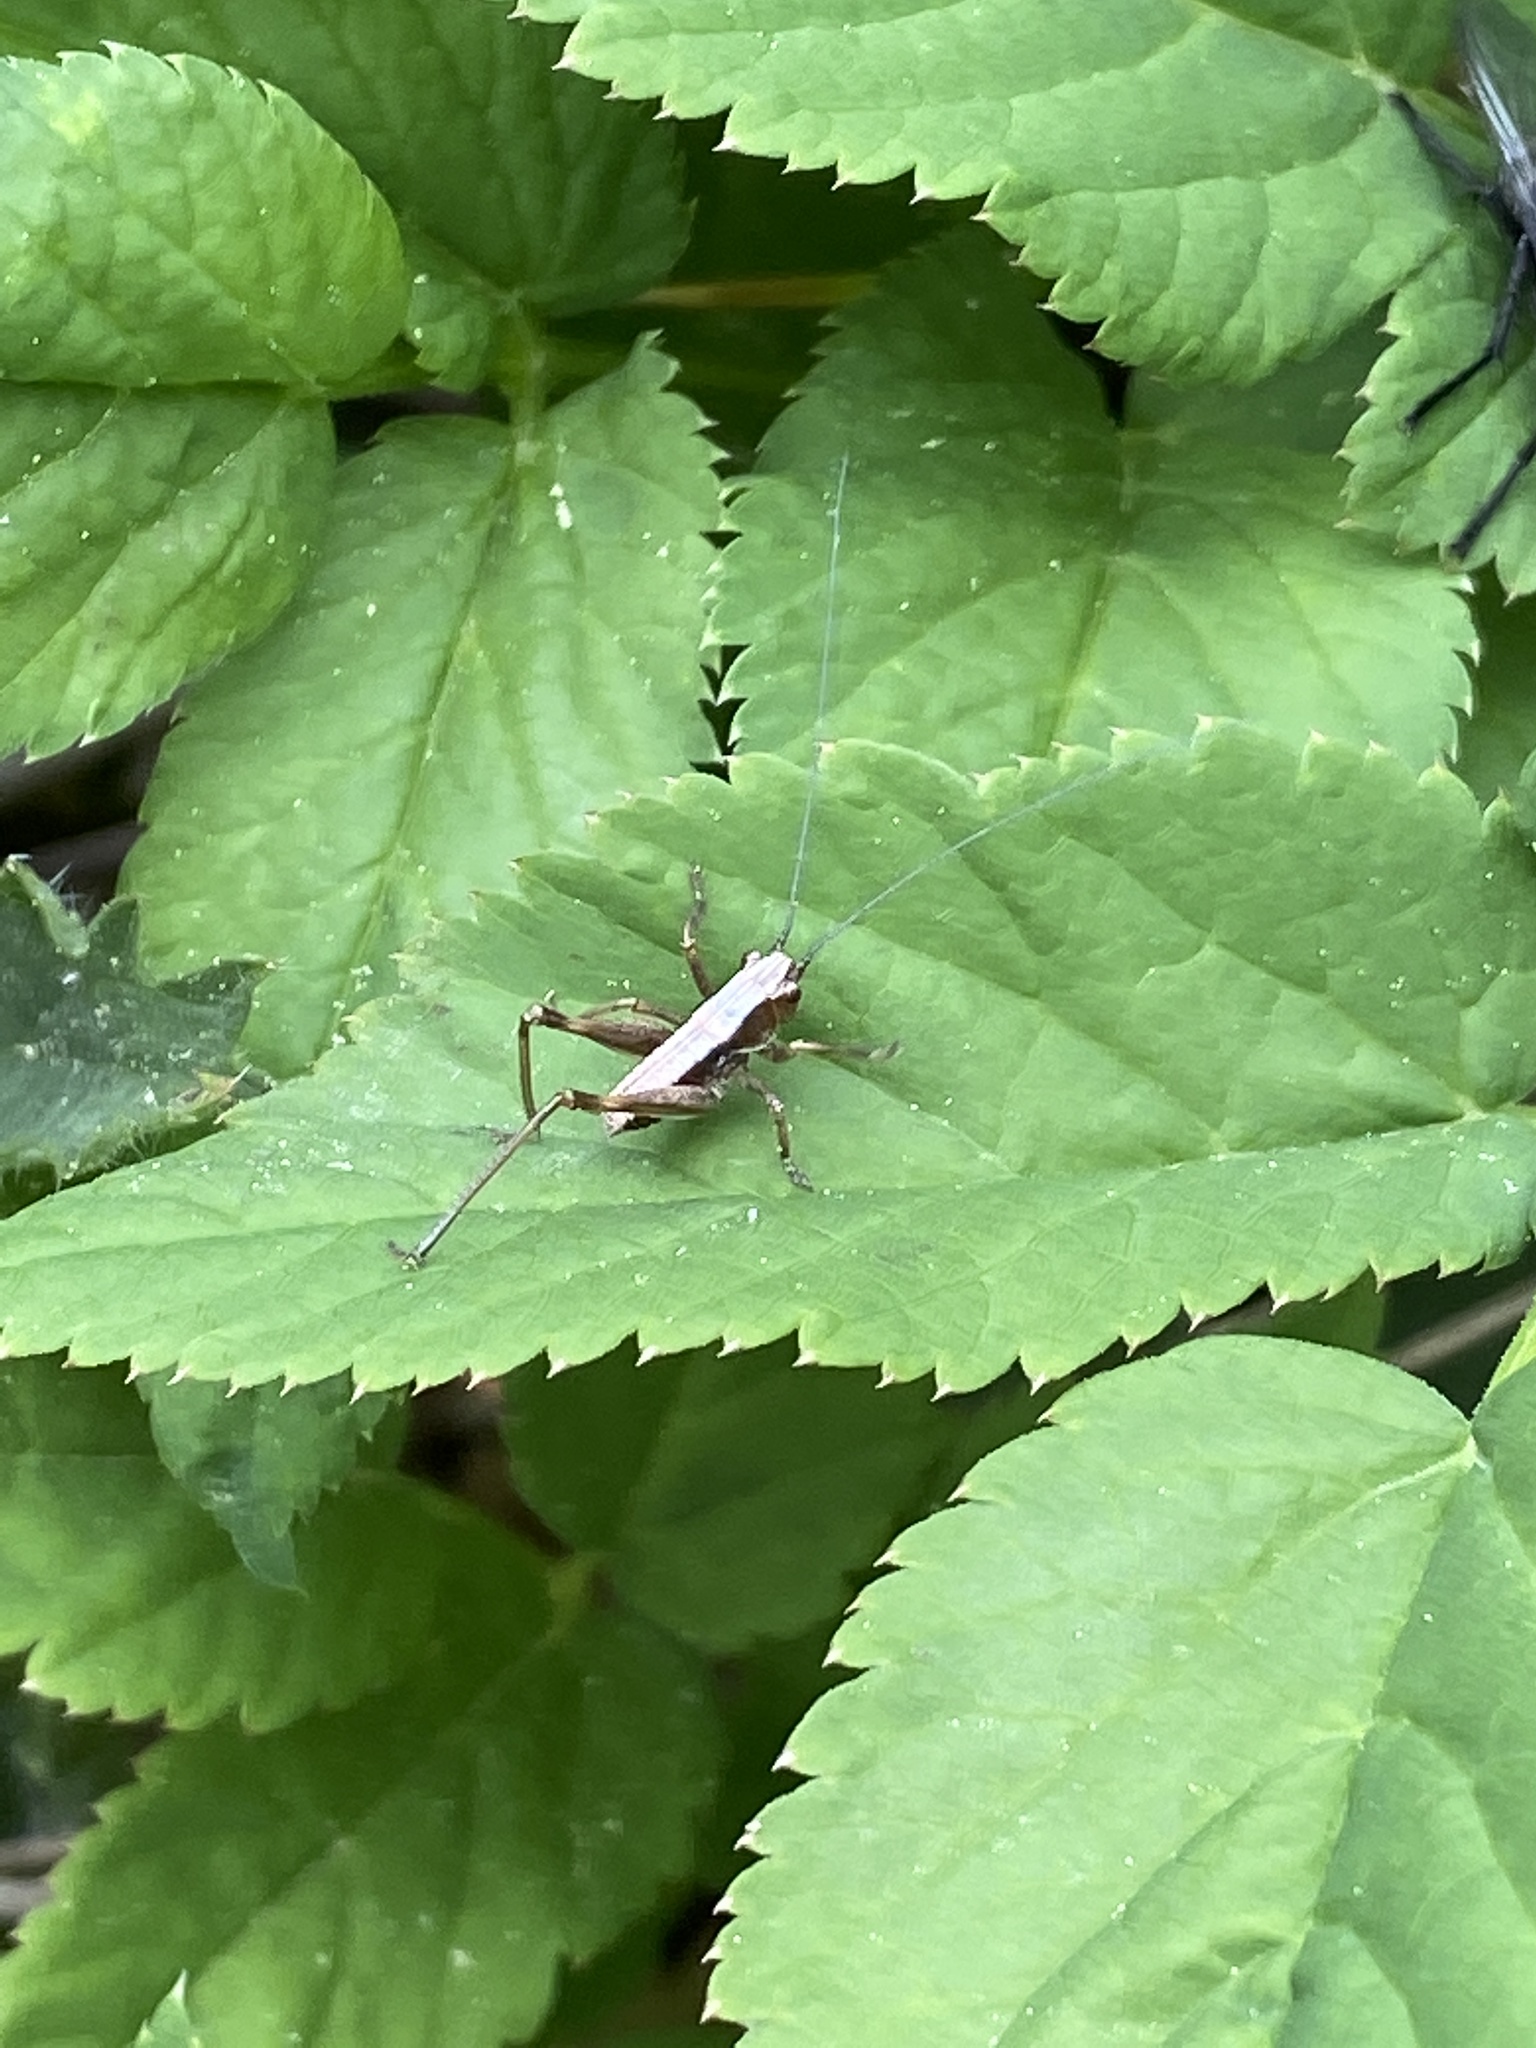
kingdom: Animalia
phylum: Arthropoda
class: Insecta
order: Orthoptera
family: Tettigoniidae
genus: Pholidoptera
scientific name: Pholidoptera griseoaptera
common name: Dark bush-cricket
